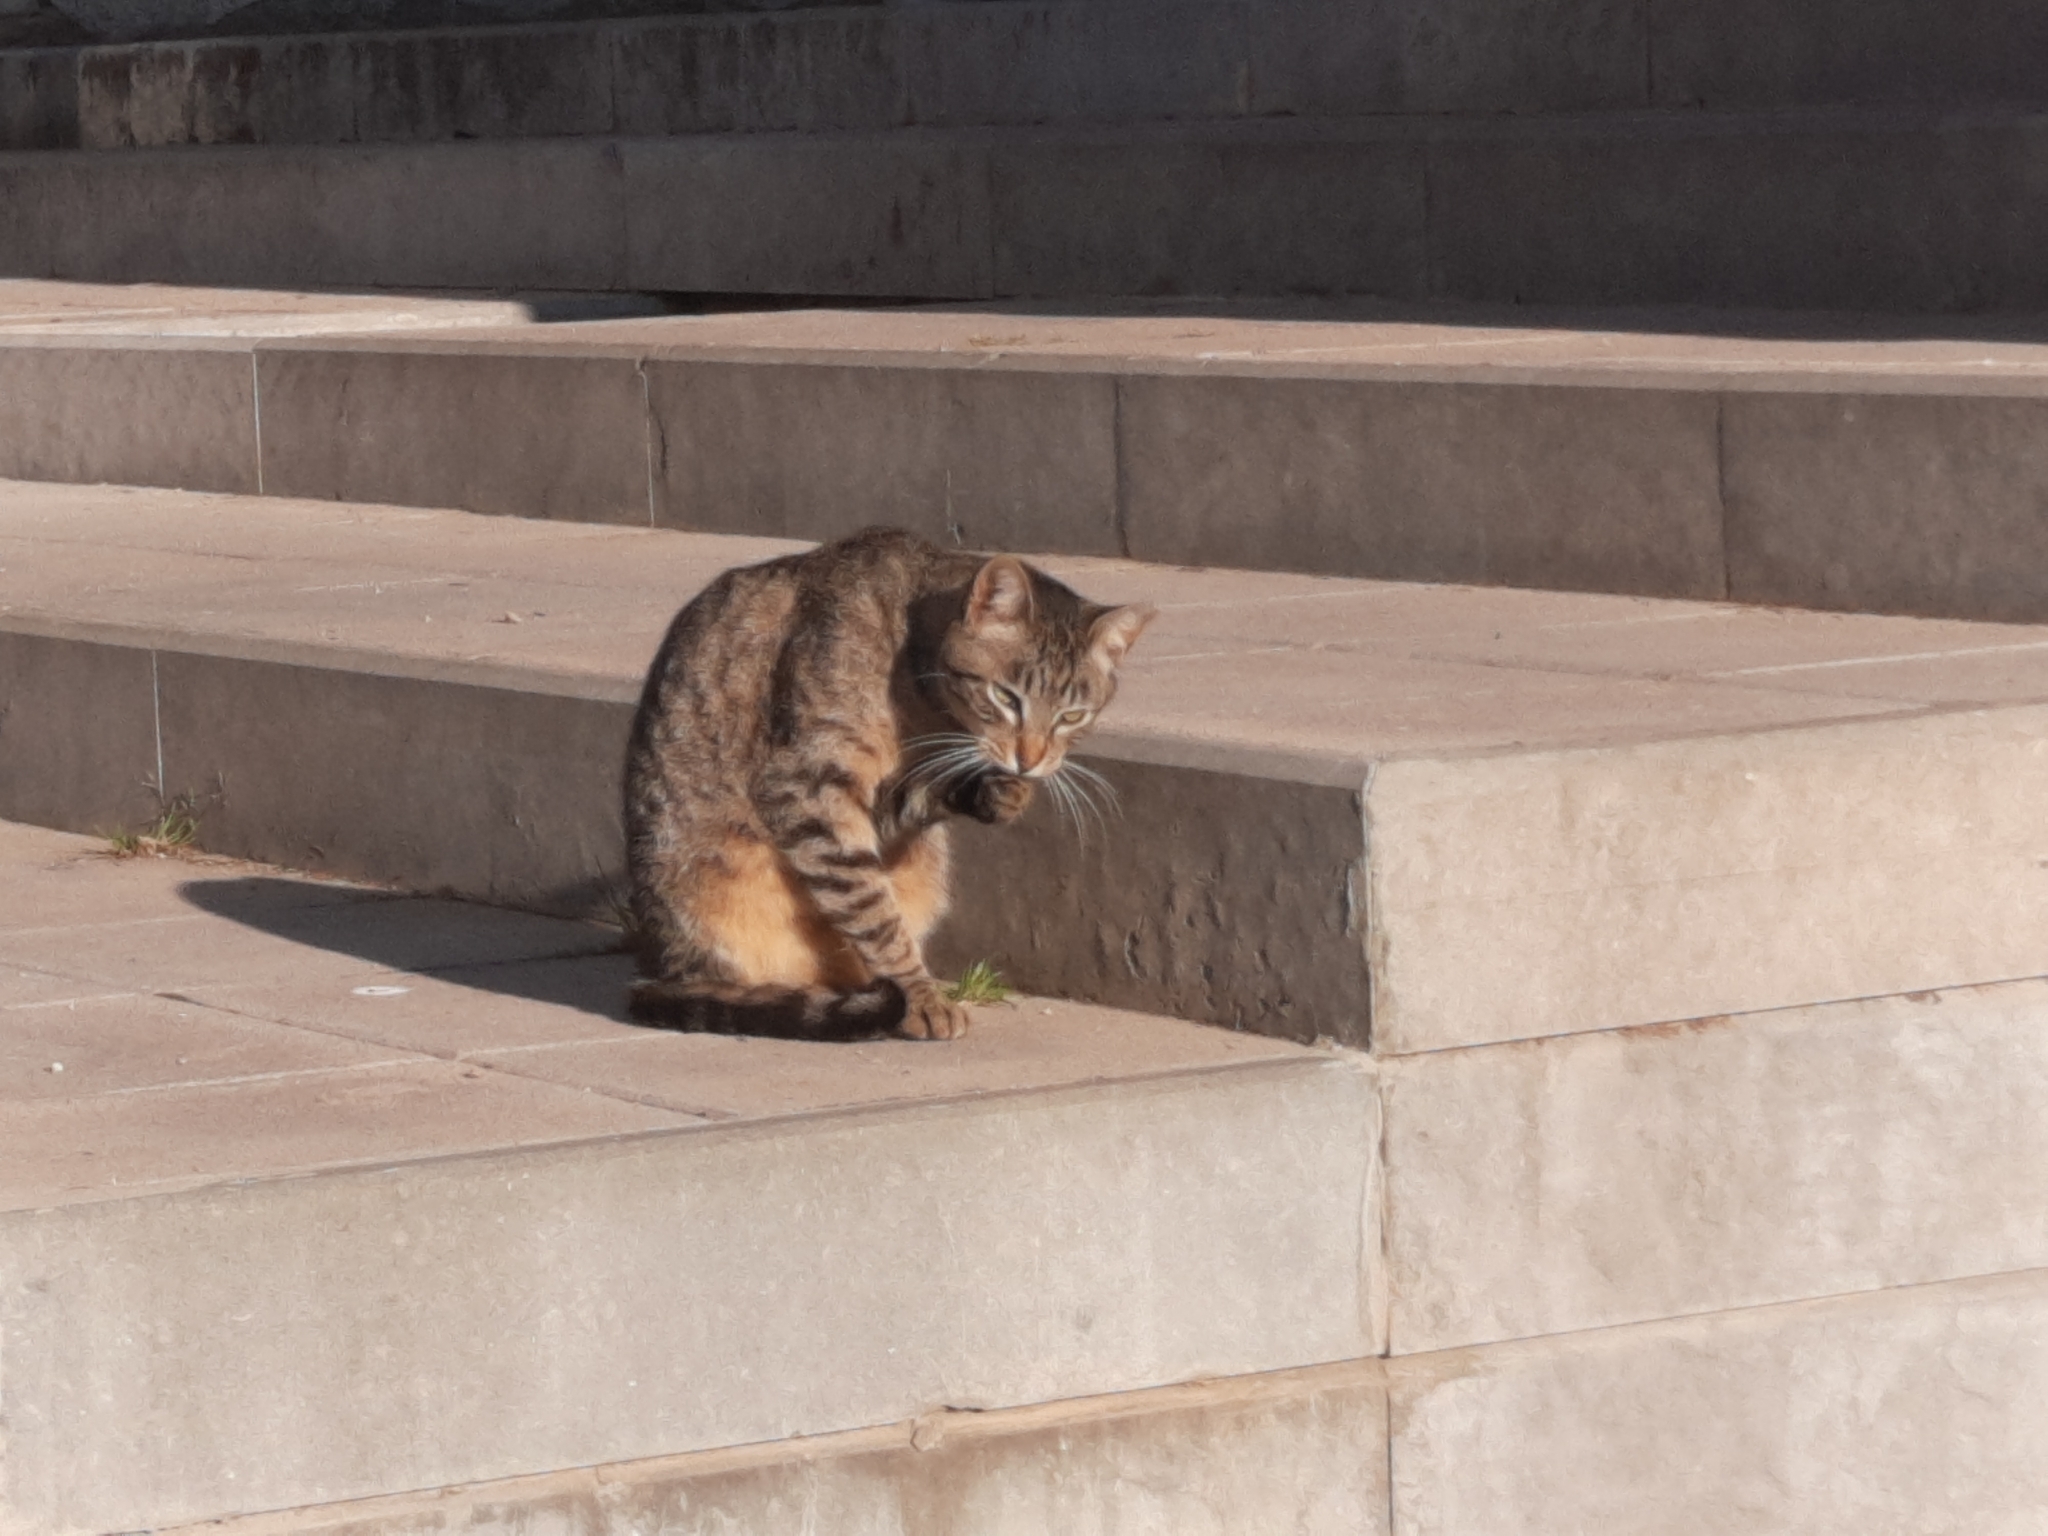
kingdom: Animalia
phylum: Chordata
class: Mammalia
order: Carnivora
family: Felidae
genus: Felis
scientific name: Felis catus
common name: Domestic cat
